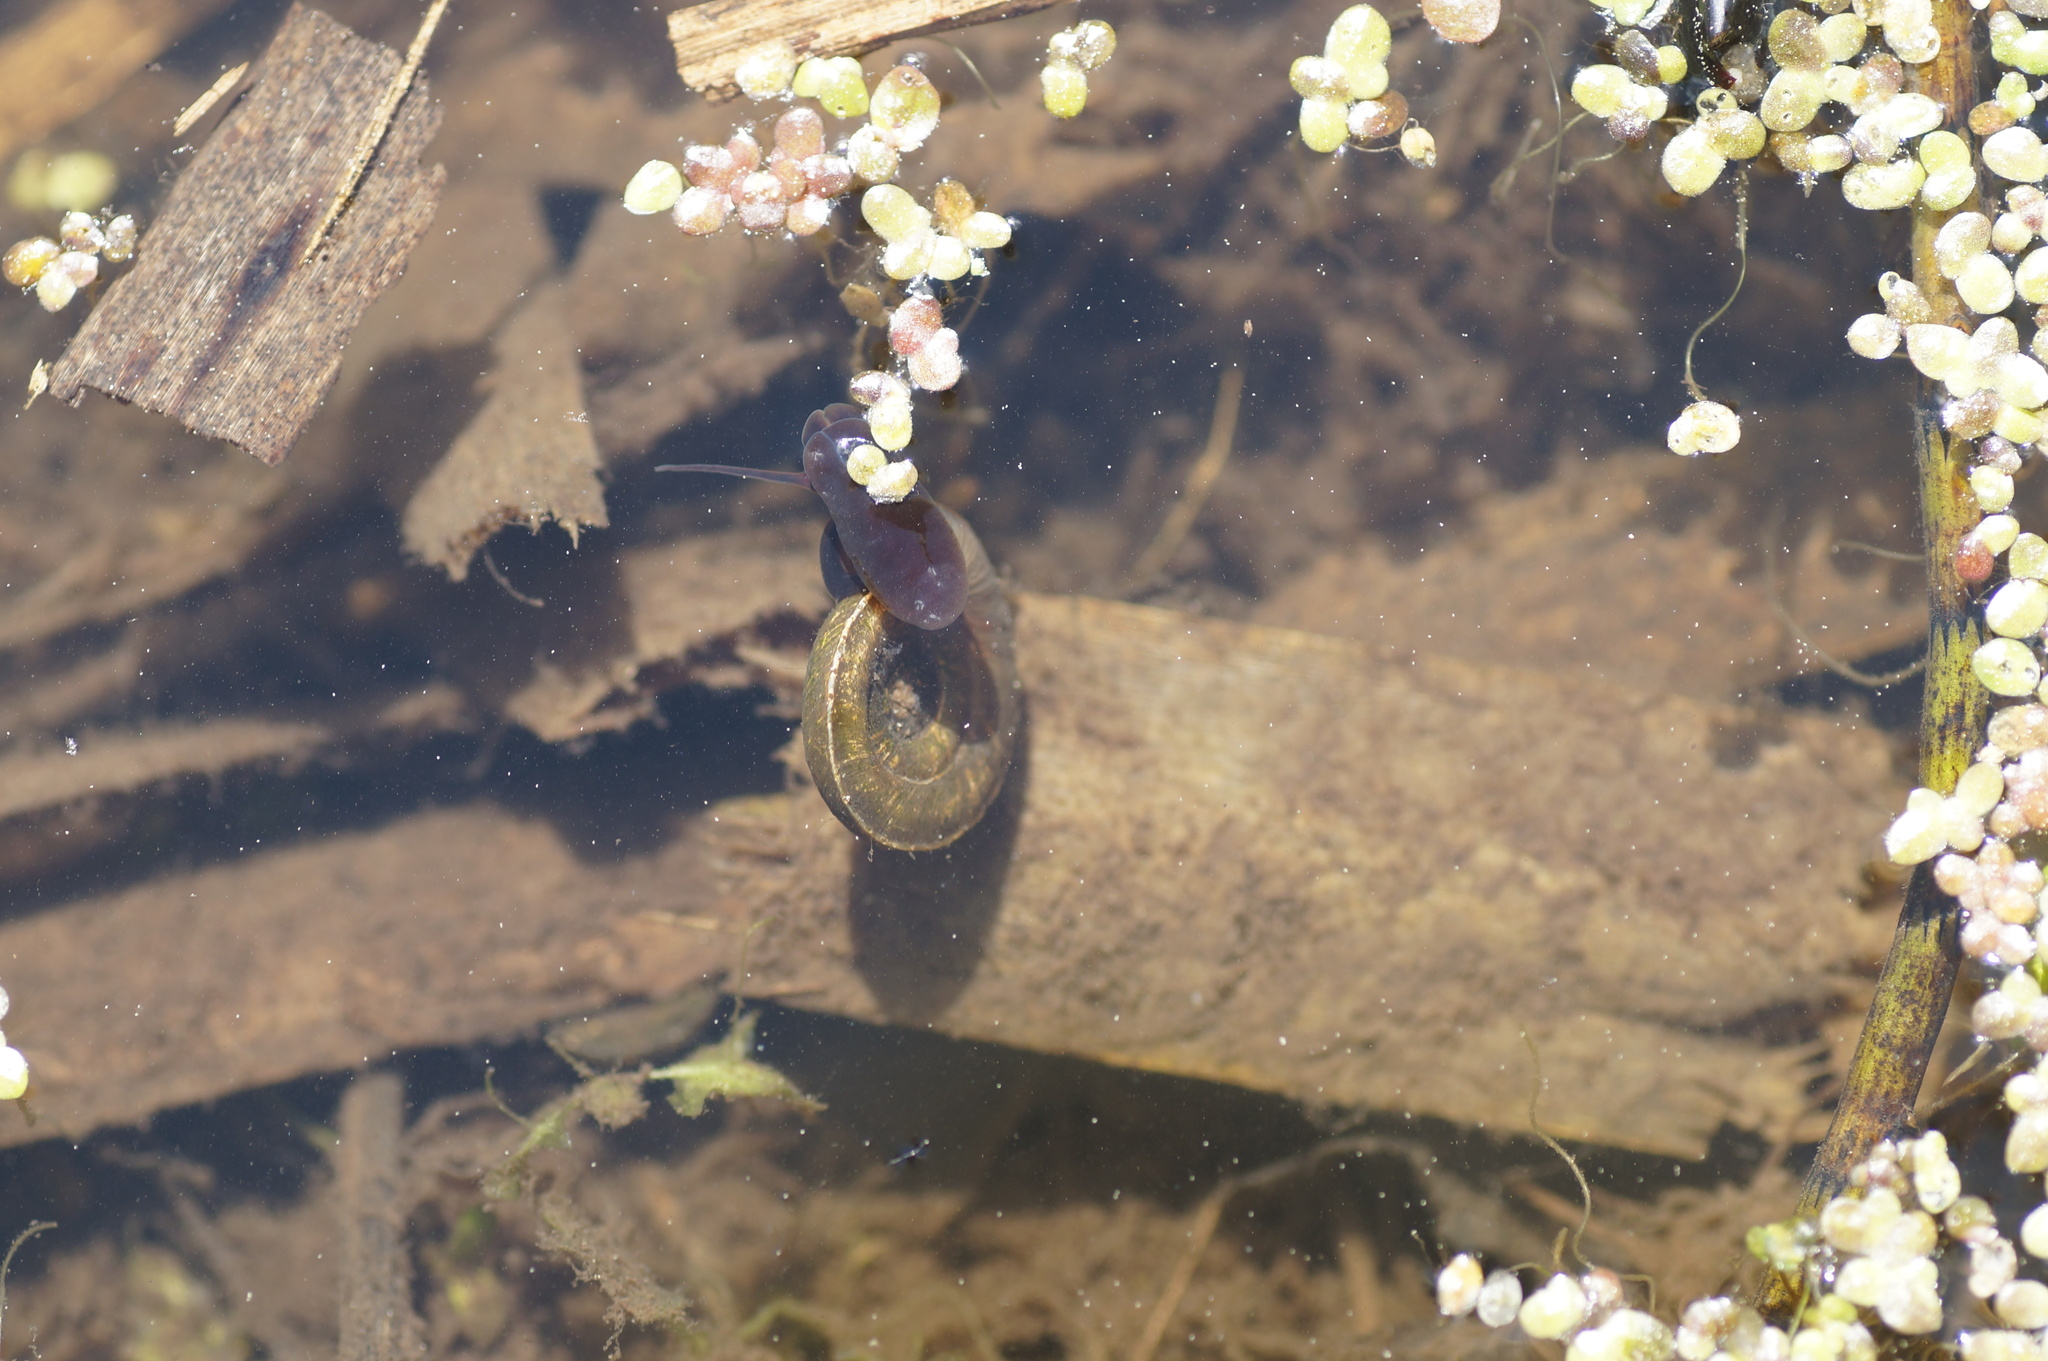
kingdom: Animalia
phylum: Mollusca
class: Gastropoda
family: Planorbidae
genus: Planorbis
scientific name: Planorbis planorbis
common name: Margined ramshorn
